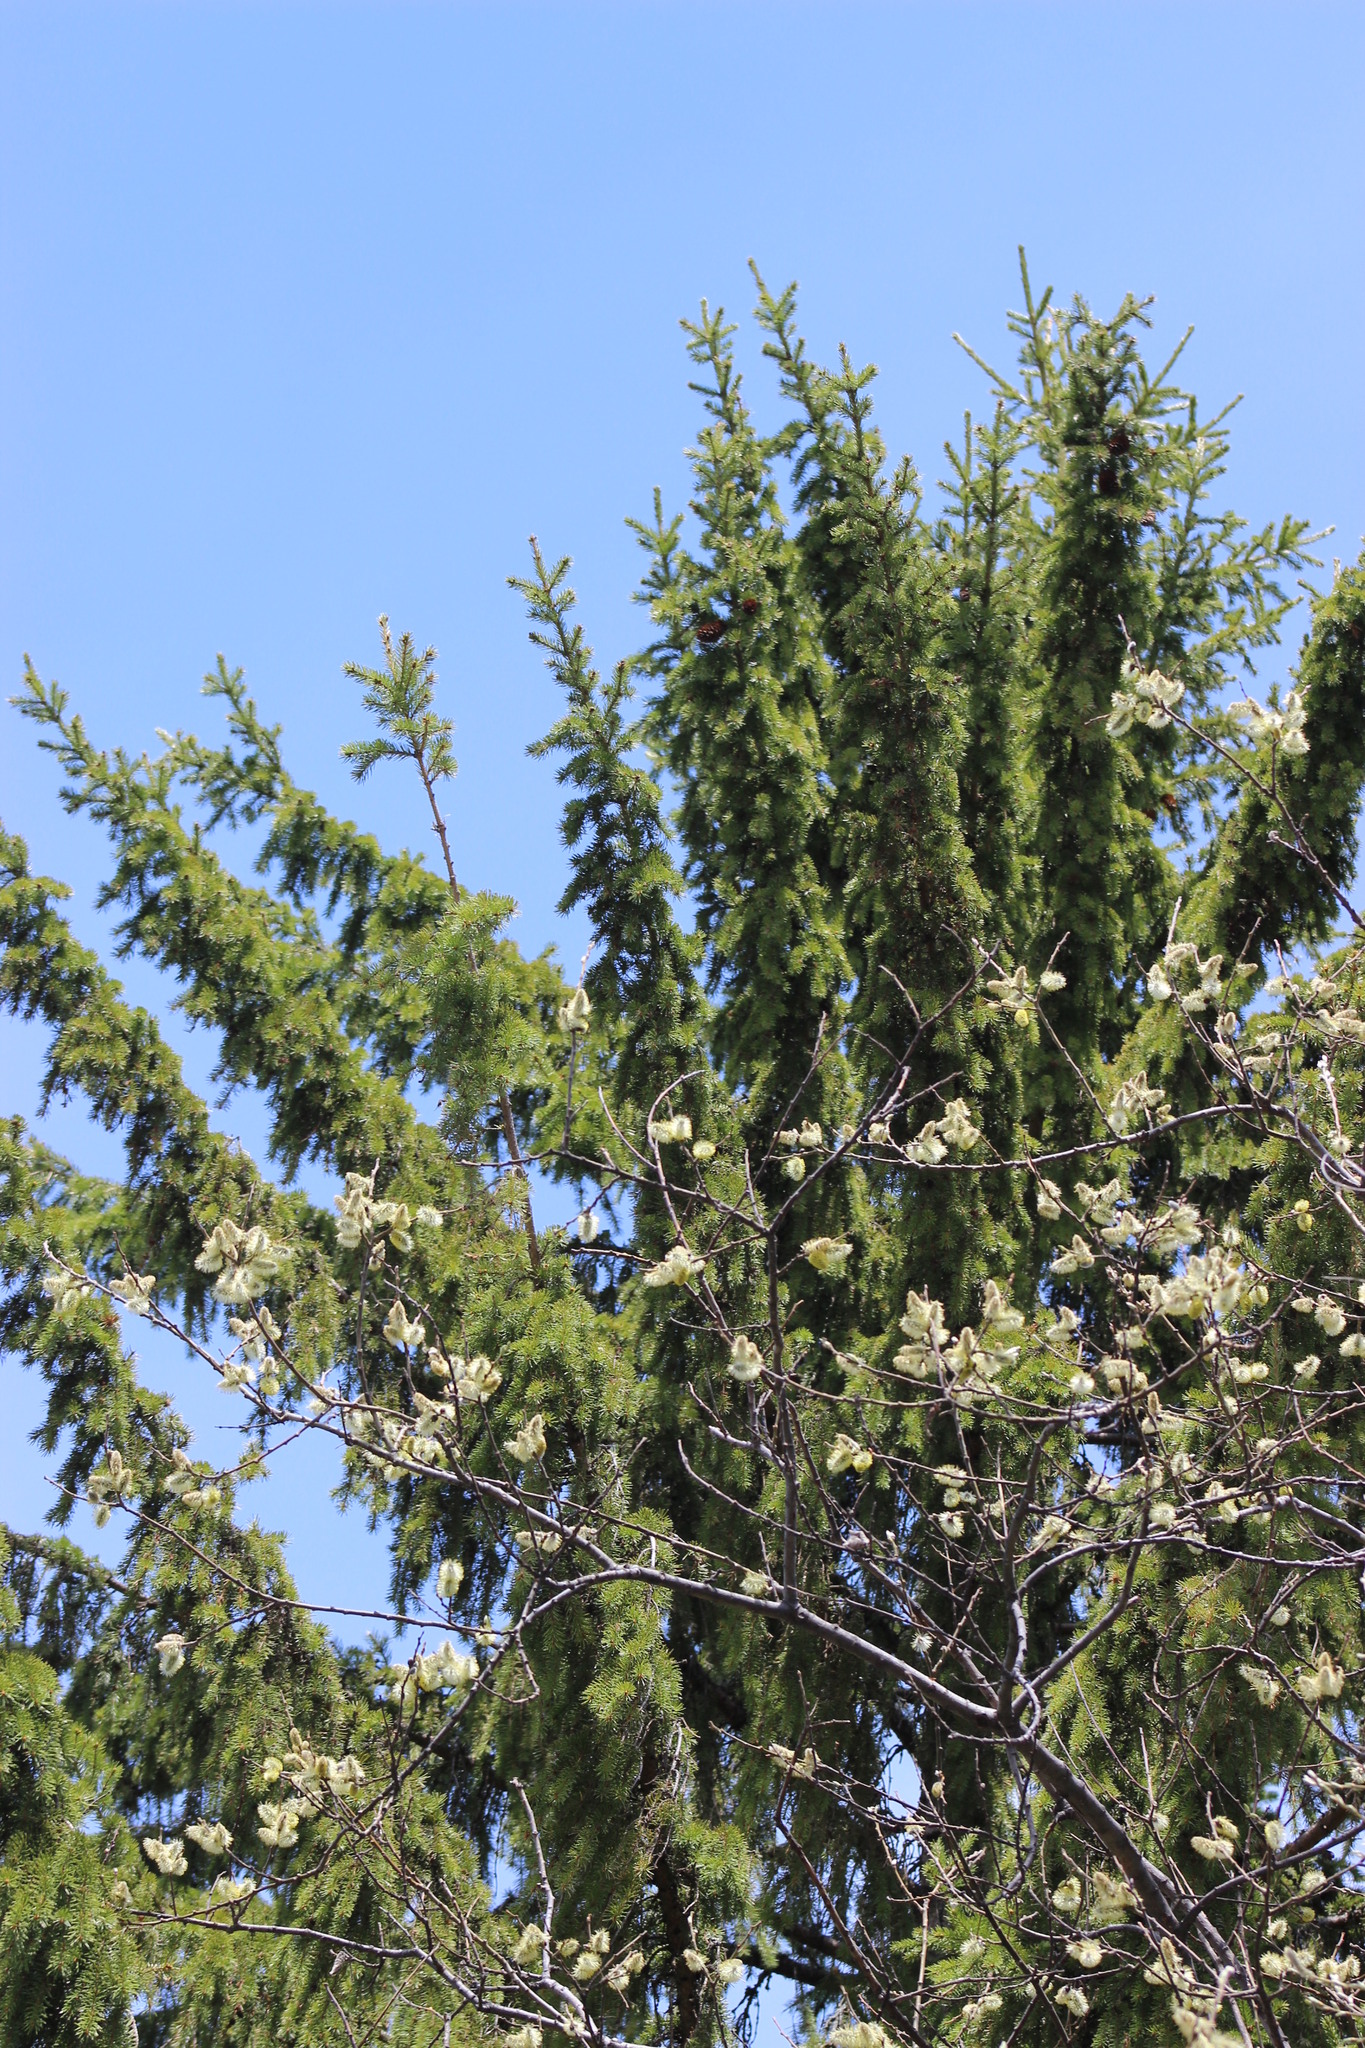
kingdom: Plantae
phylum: Tracheophyta
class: Magnoliopsida
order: Malpighiales
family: Salicaceae
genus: Salix
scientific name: Salix caprea
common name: Goat willow
